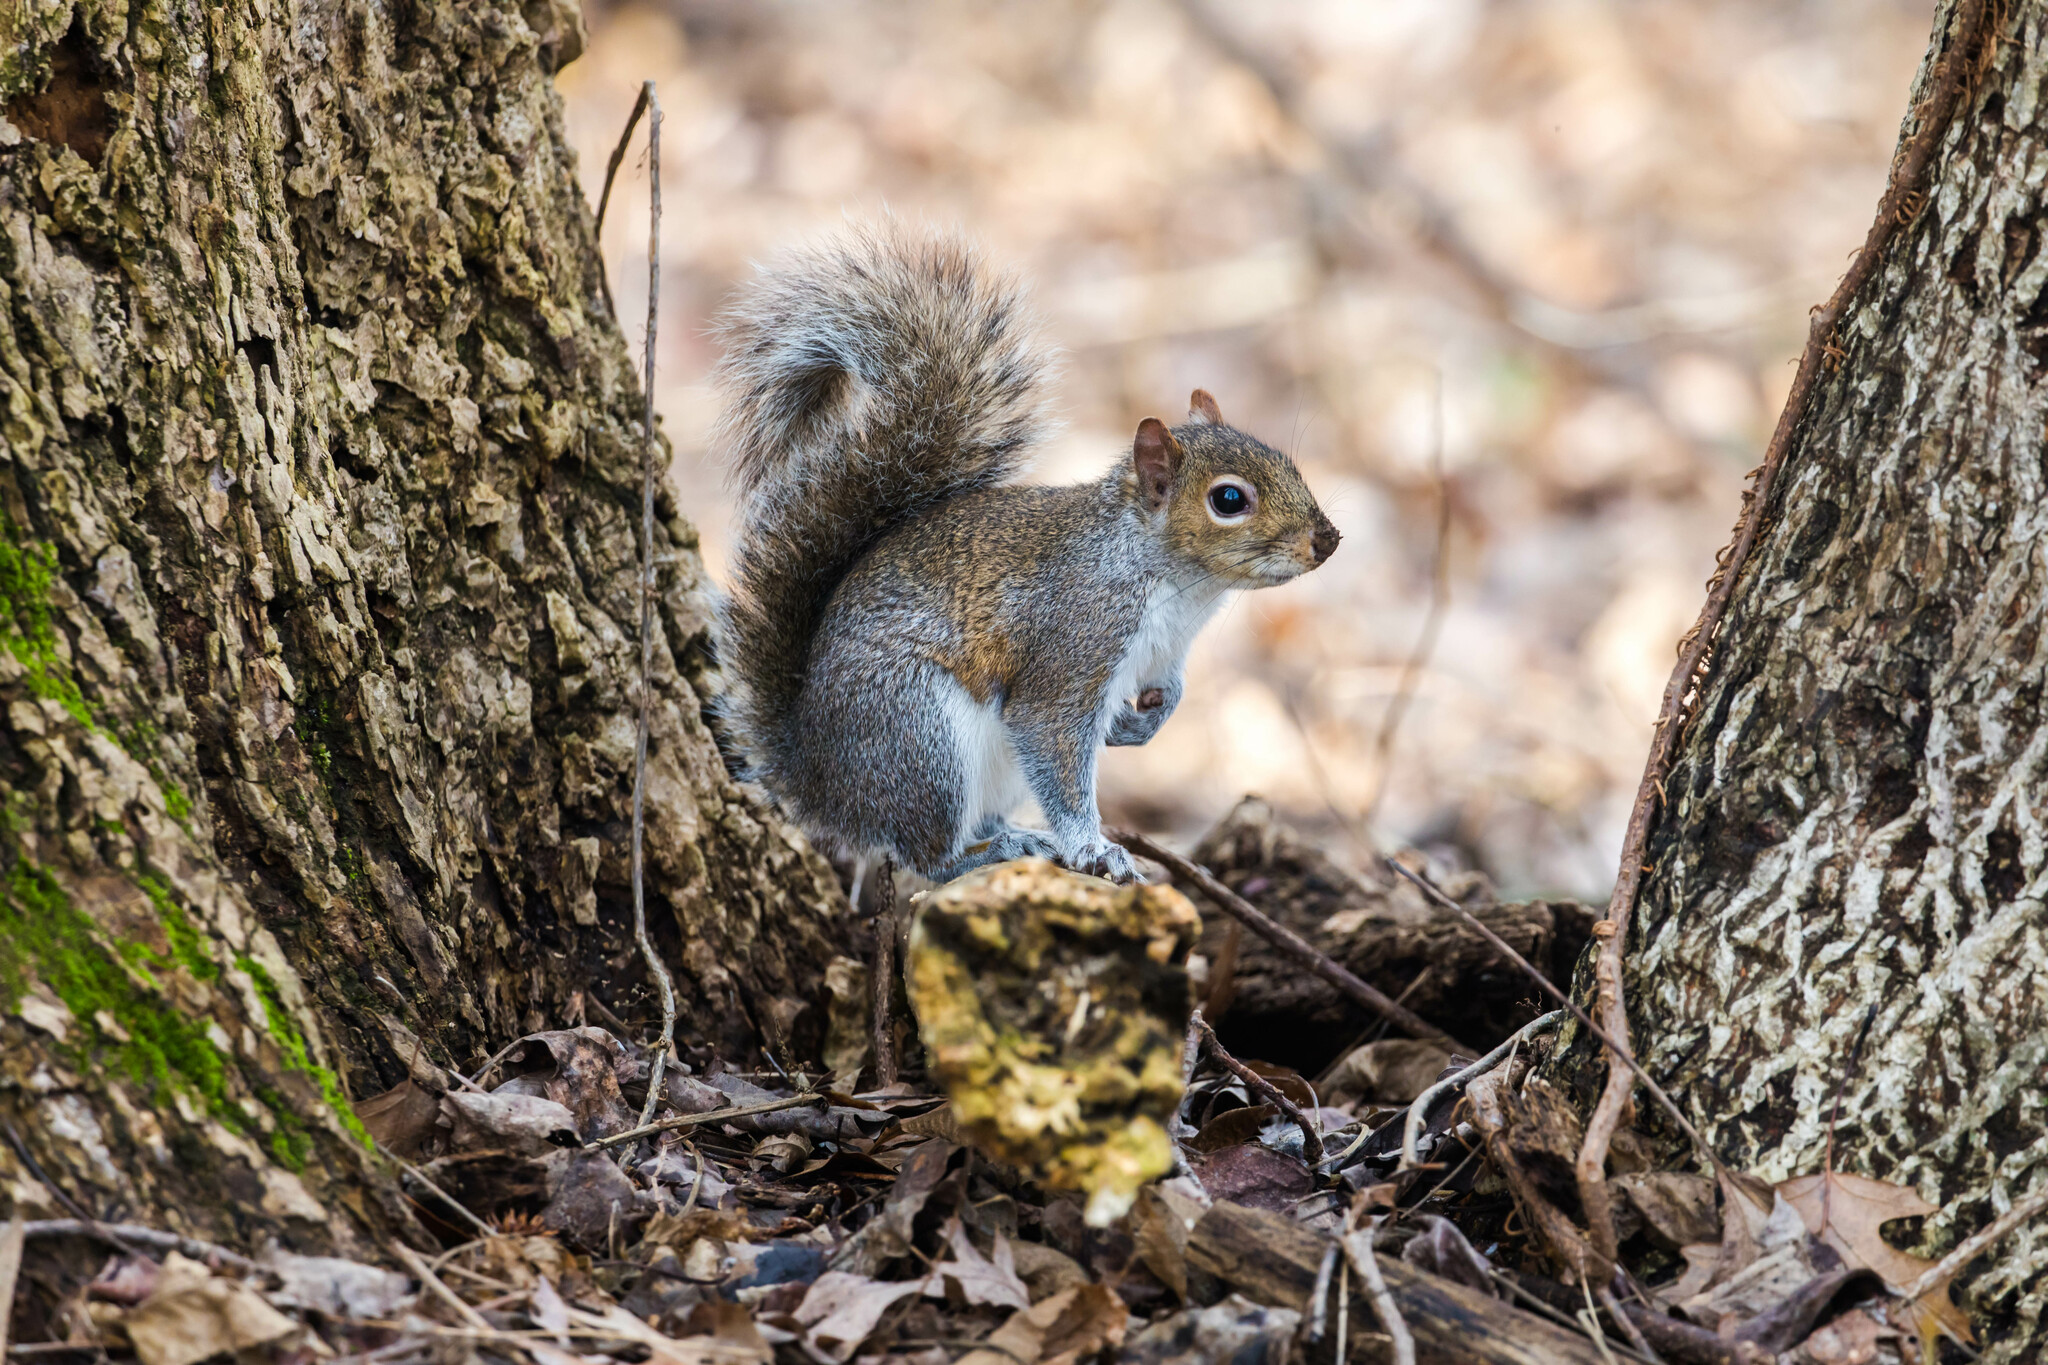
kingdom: Animalia
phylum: Chordata
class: Mammalia
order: Rodentia
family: Sciuridae
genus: Sciurus
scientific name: Sciurus carolinensis
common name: Eastern gray squirrel
